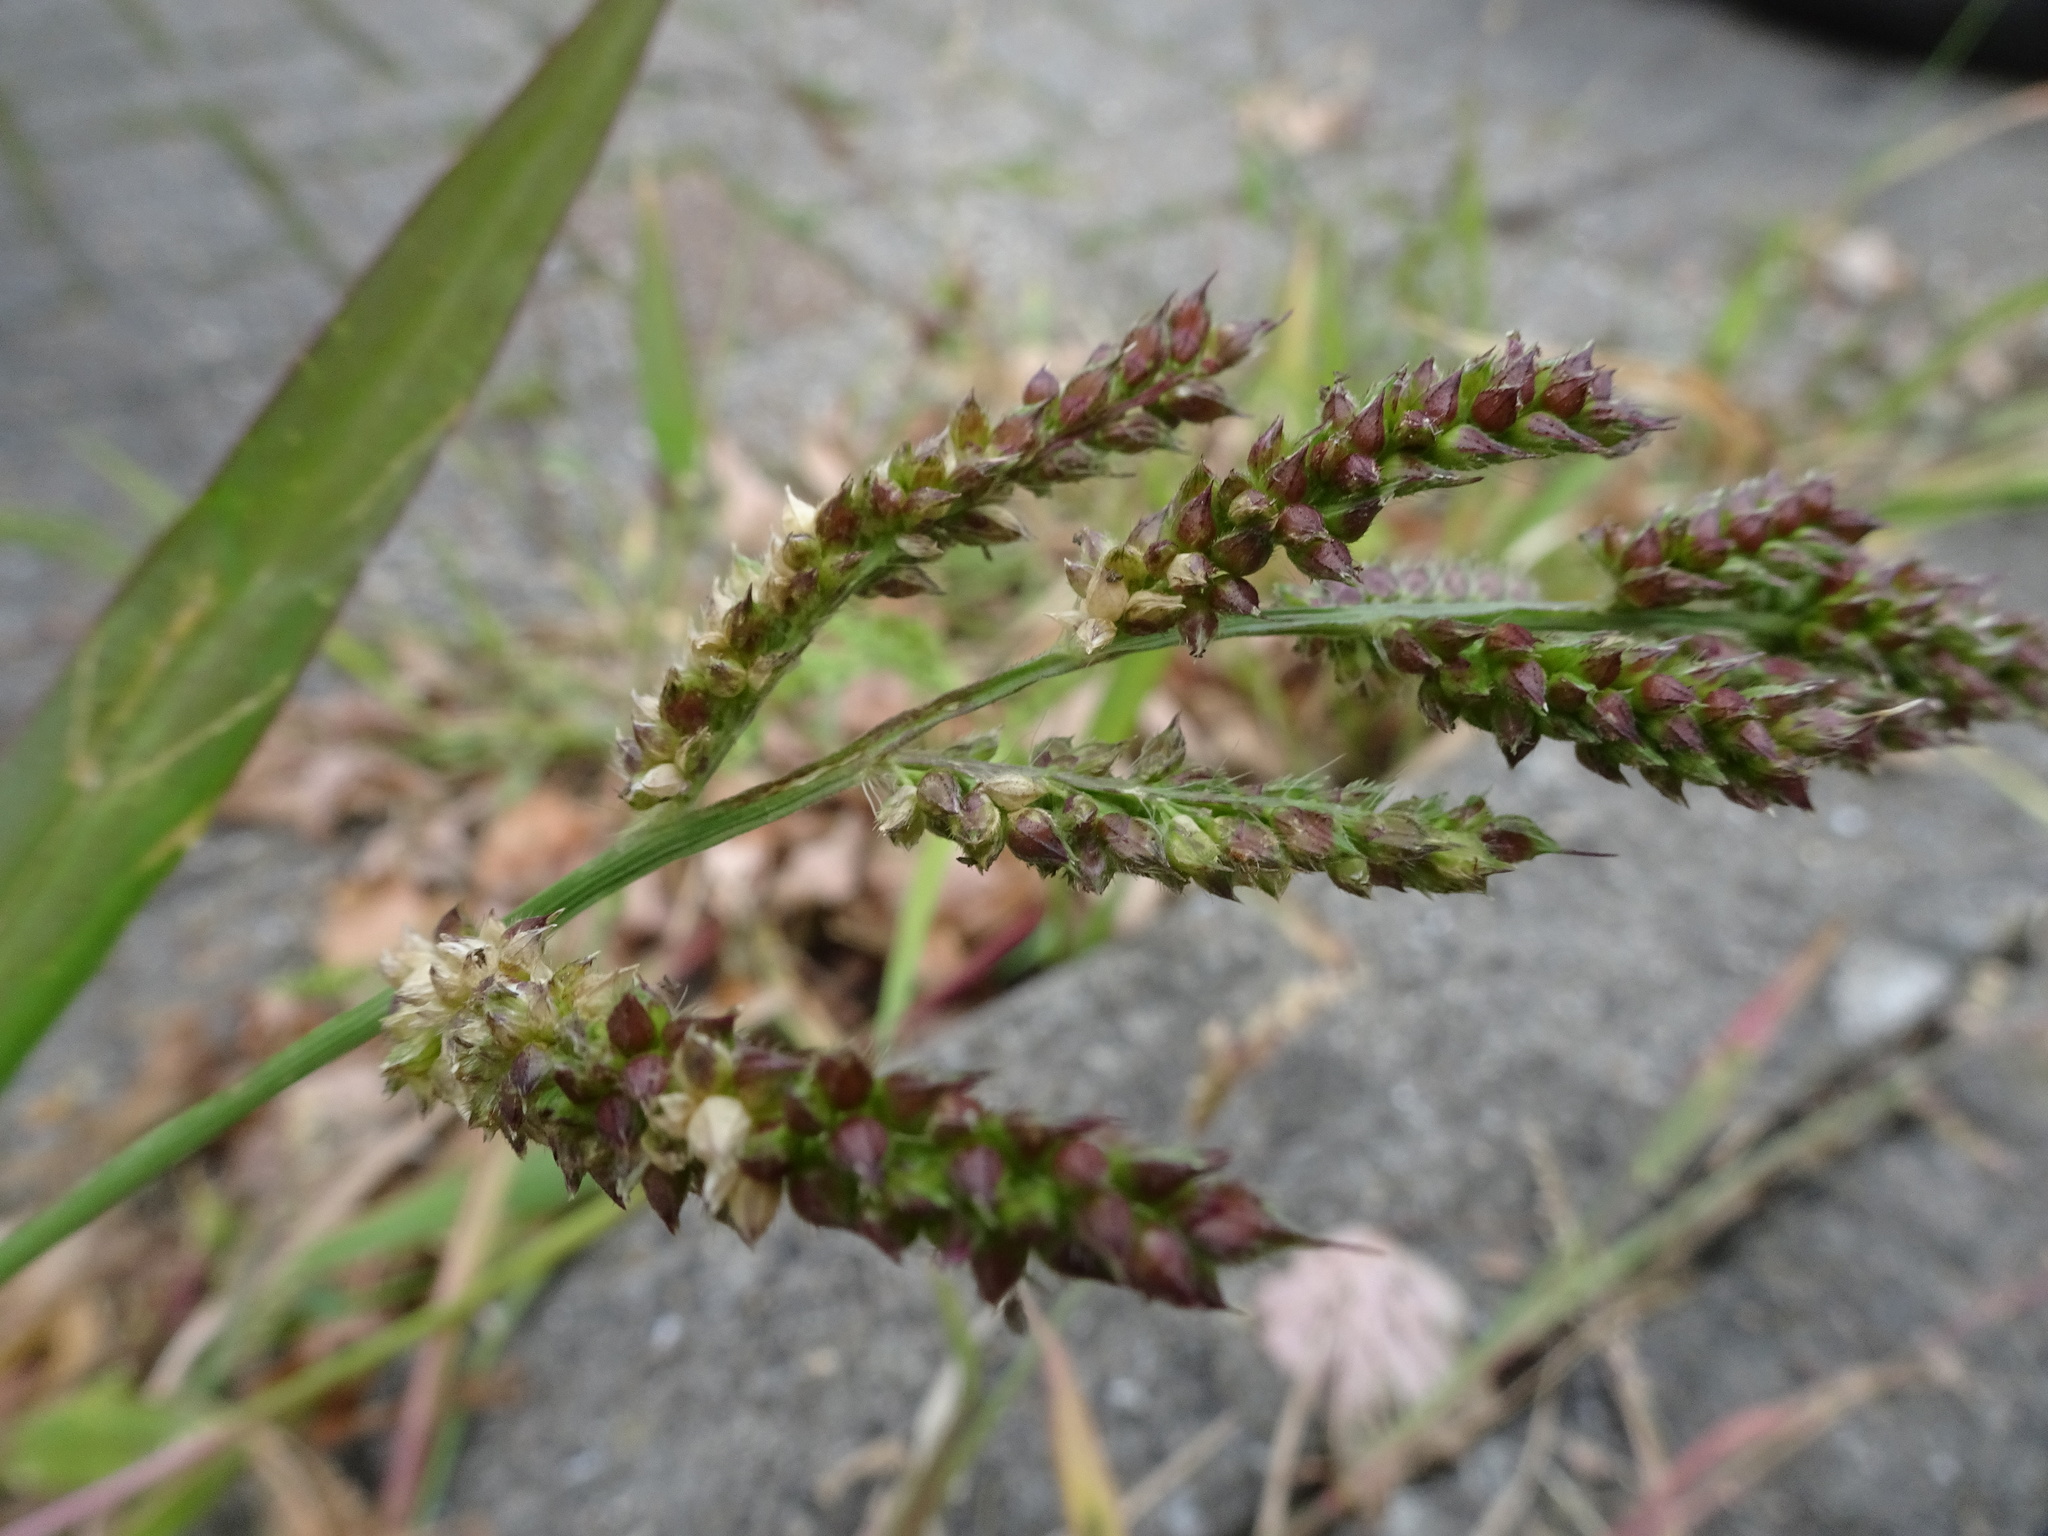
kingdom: Plantae
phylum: Tracheophyta
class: Liliopsida
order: Poales
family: Poaceae
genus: Echinochloa
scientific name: Echinochloa crus-galli
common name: Cockspur
